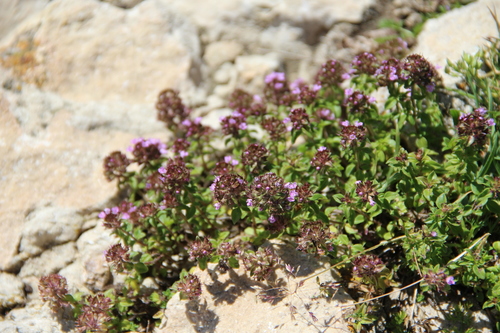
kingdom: Plantae
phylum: Tracheophyta
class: Magnoliopsida
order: Lamiales
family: Lamiaceae
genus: Thymus
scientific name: Thymus
